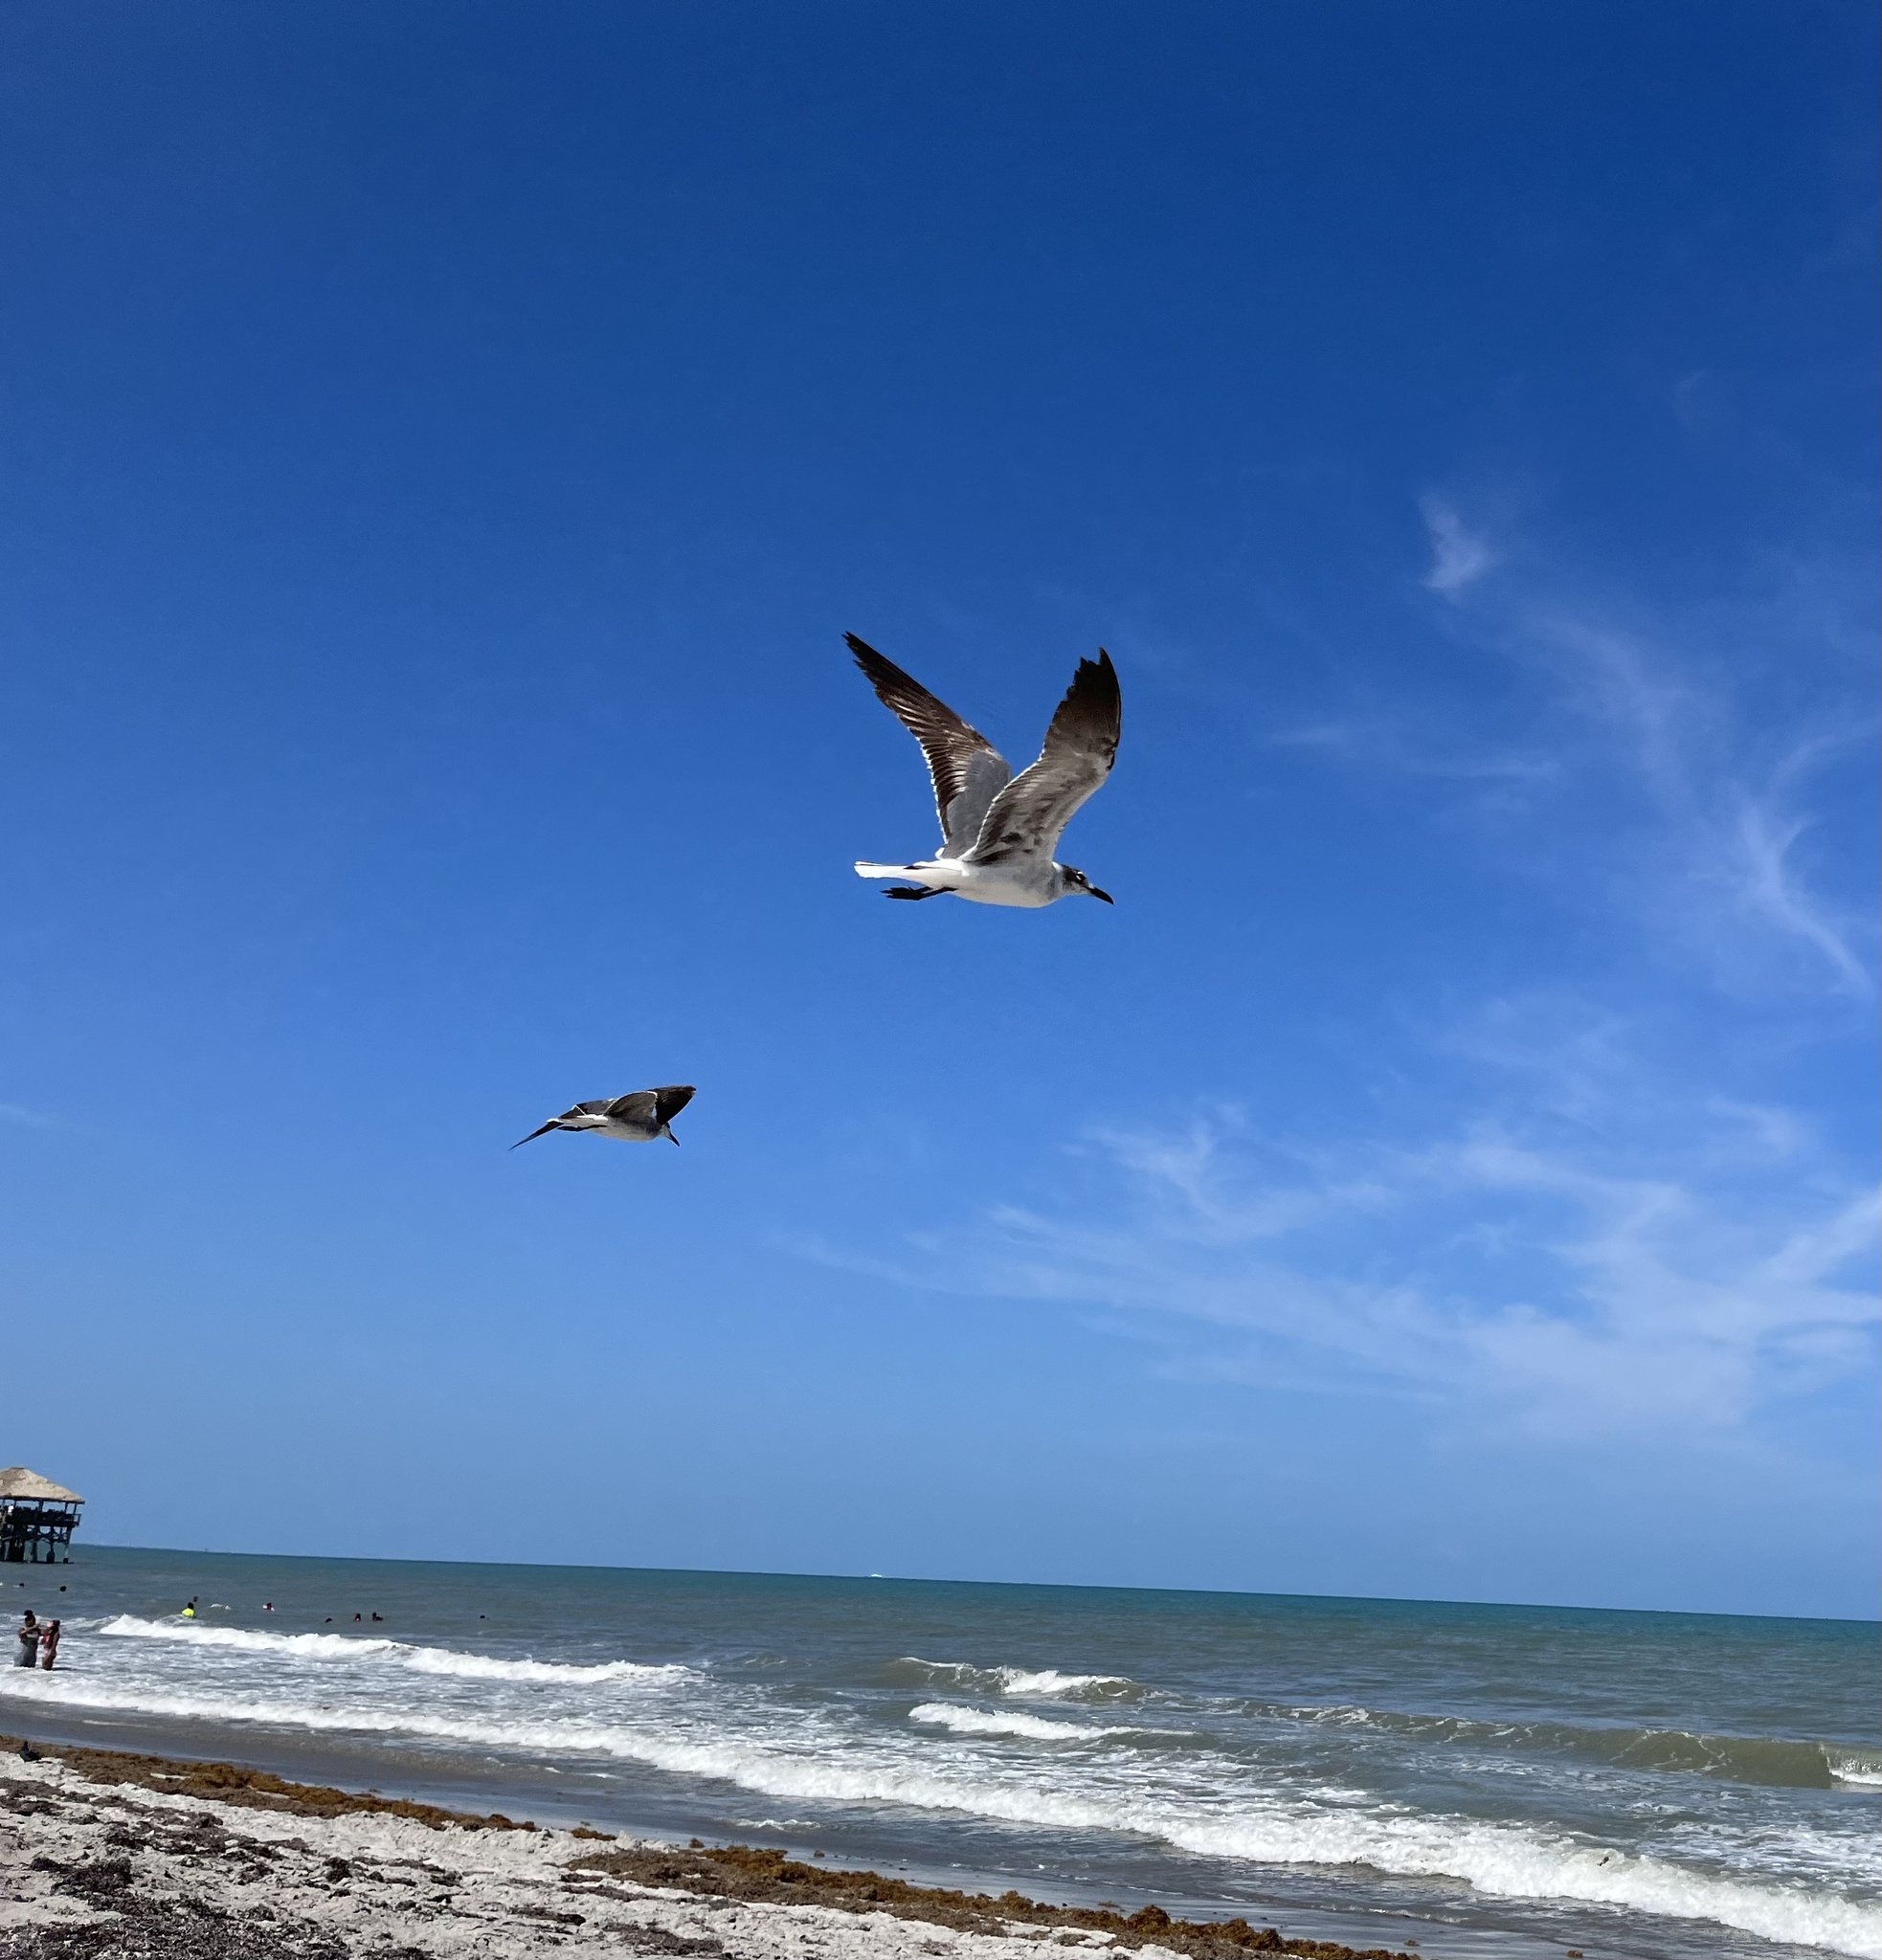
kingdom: Animalia
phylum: Chordata
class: Aves
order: Charadriiformes
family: Laridae
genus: Leucophaeus
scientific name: Leucophaeus atricilla
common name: Laughing gull
